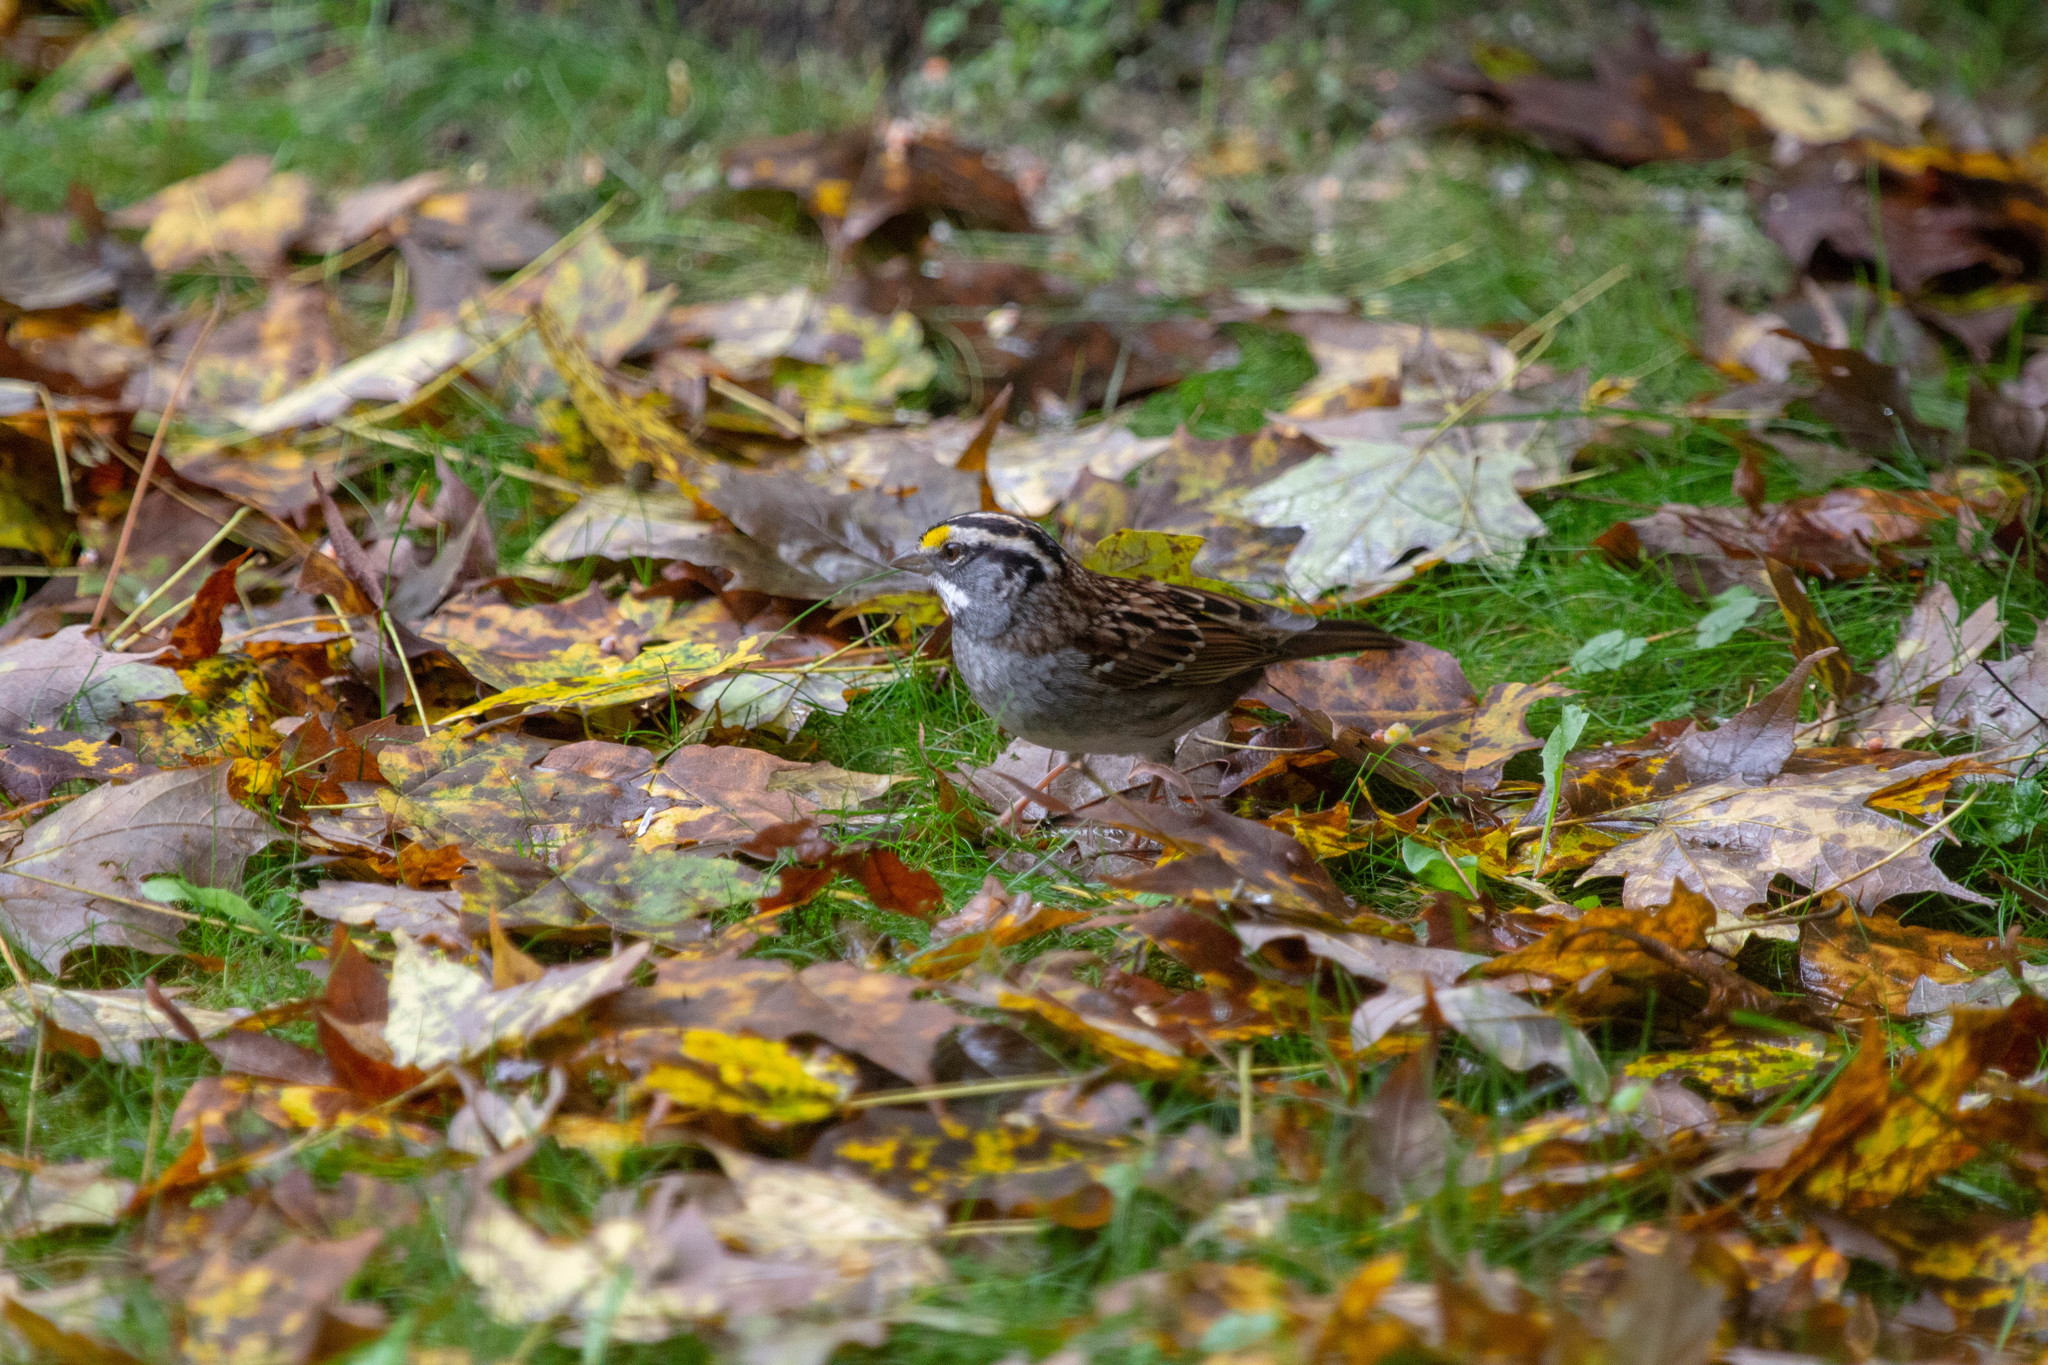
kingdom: Animalia
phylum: Chordata
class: Aves
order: Passeriformes
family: Passerellidae
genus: Zonotrichia
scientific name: Zonotrichia albicollis
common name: White-throated sparrow
